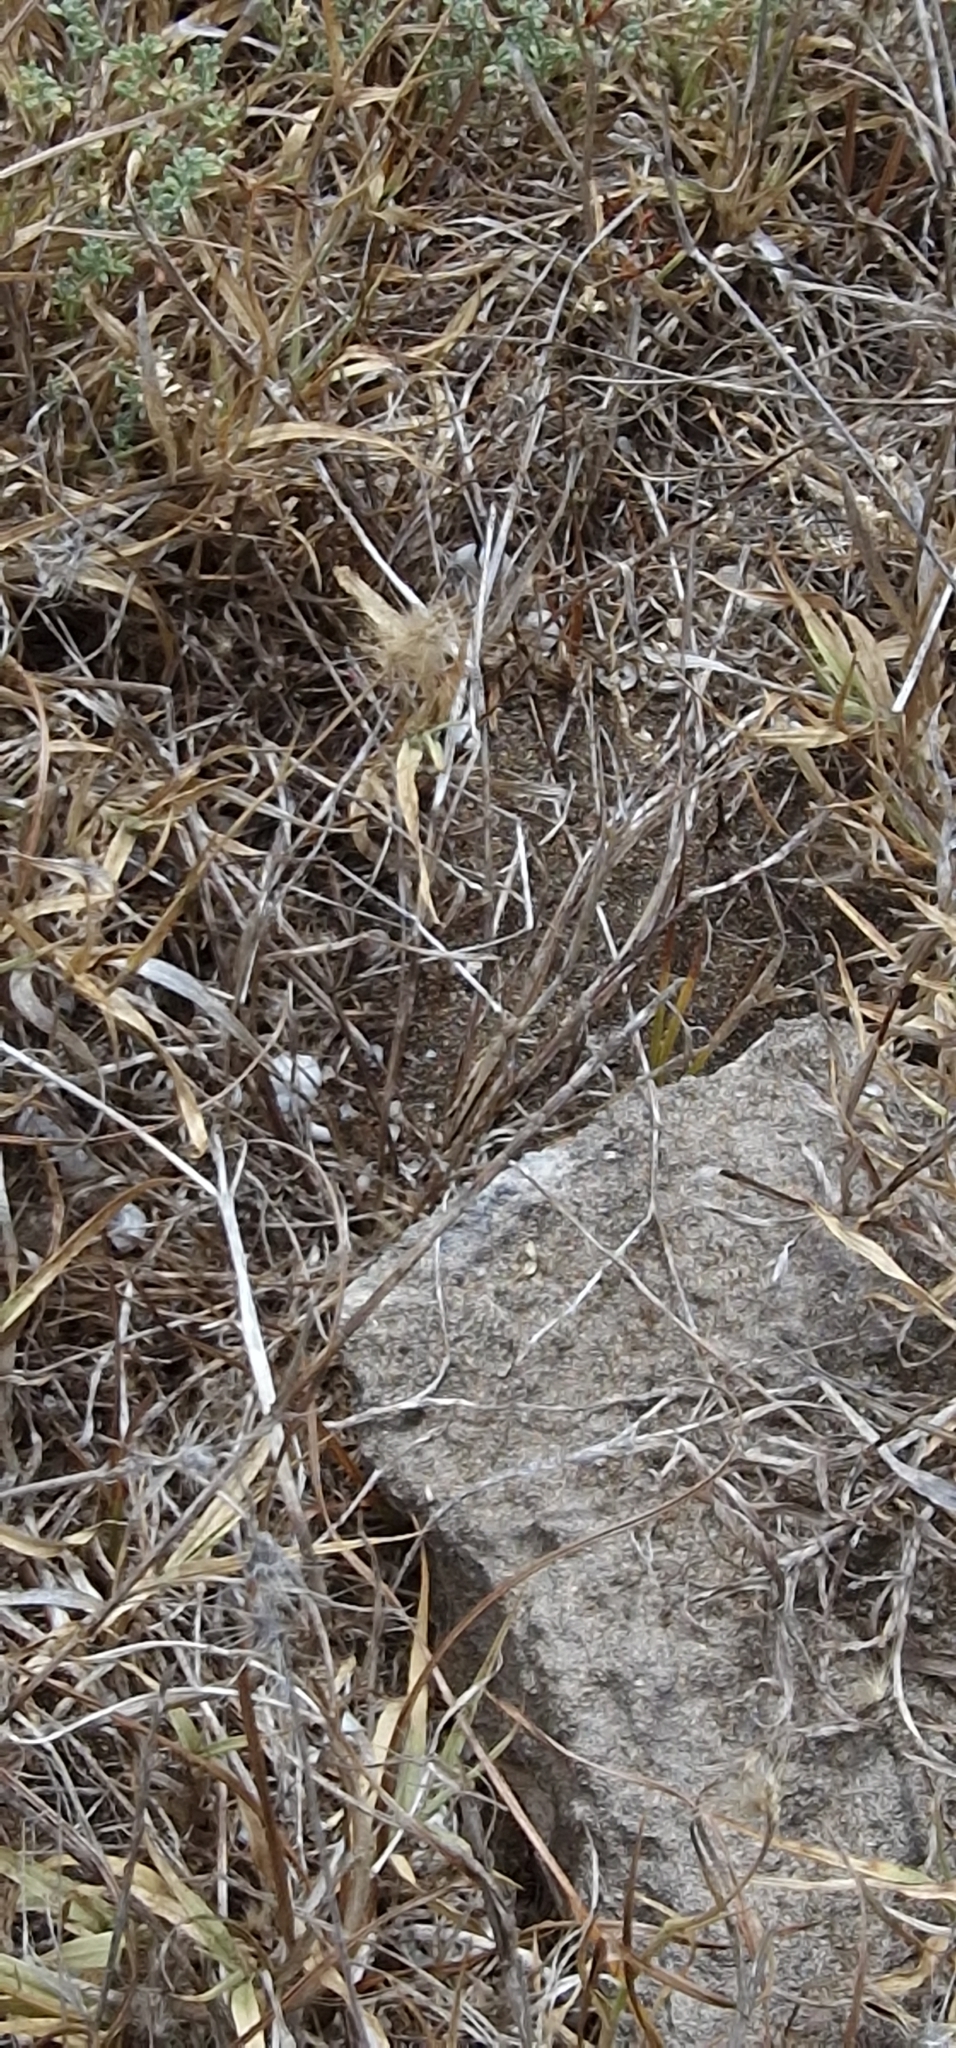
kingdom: Animalia
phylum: Arthropoda
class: Insecta
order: Orthoptera
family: Acrididae
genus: Aiolopus
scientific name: Aiolopus thalassinus
